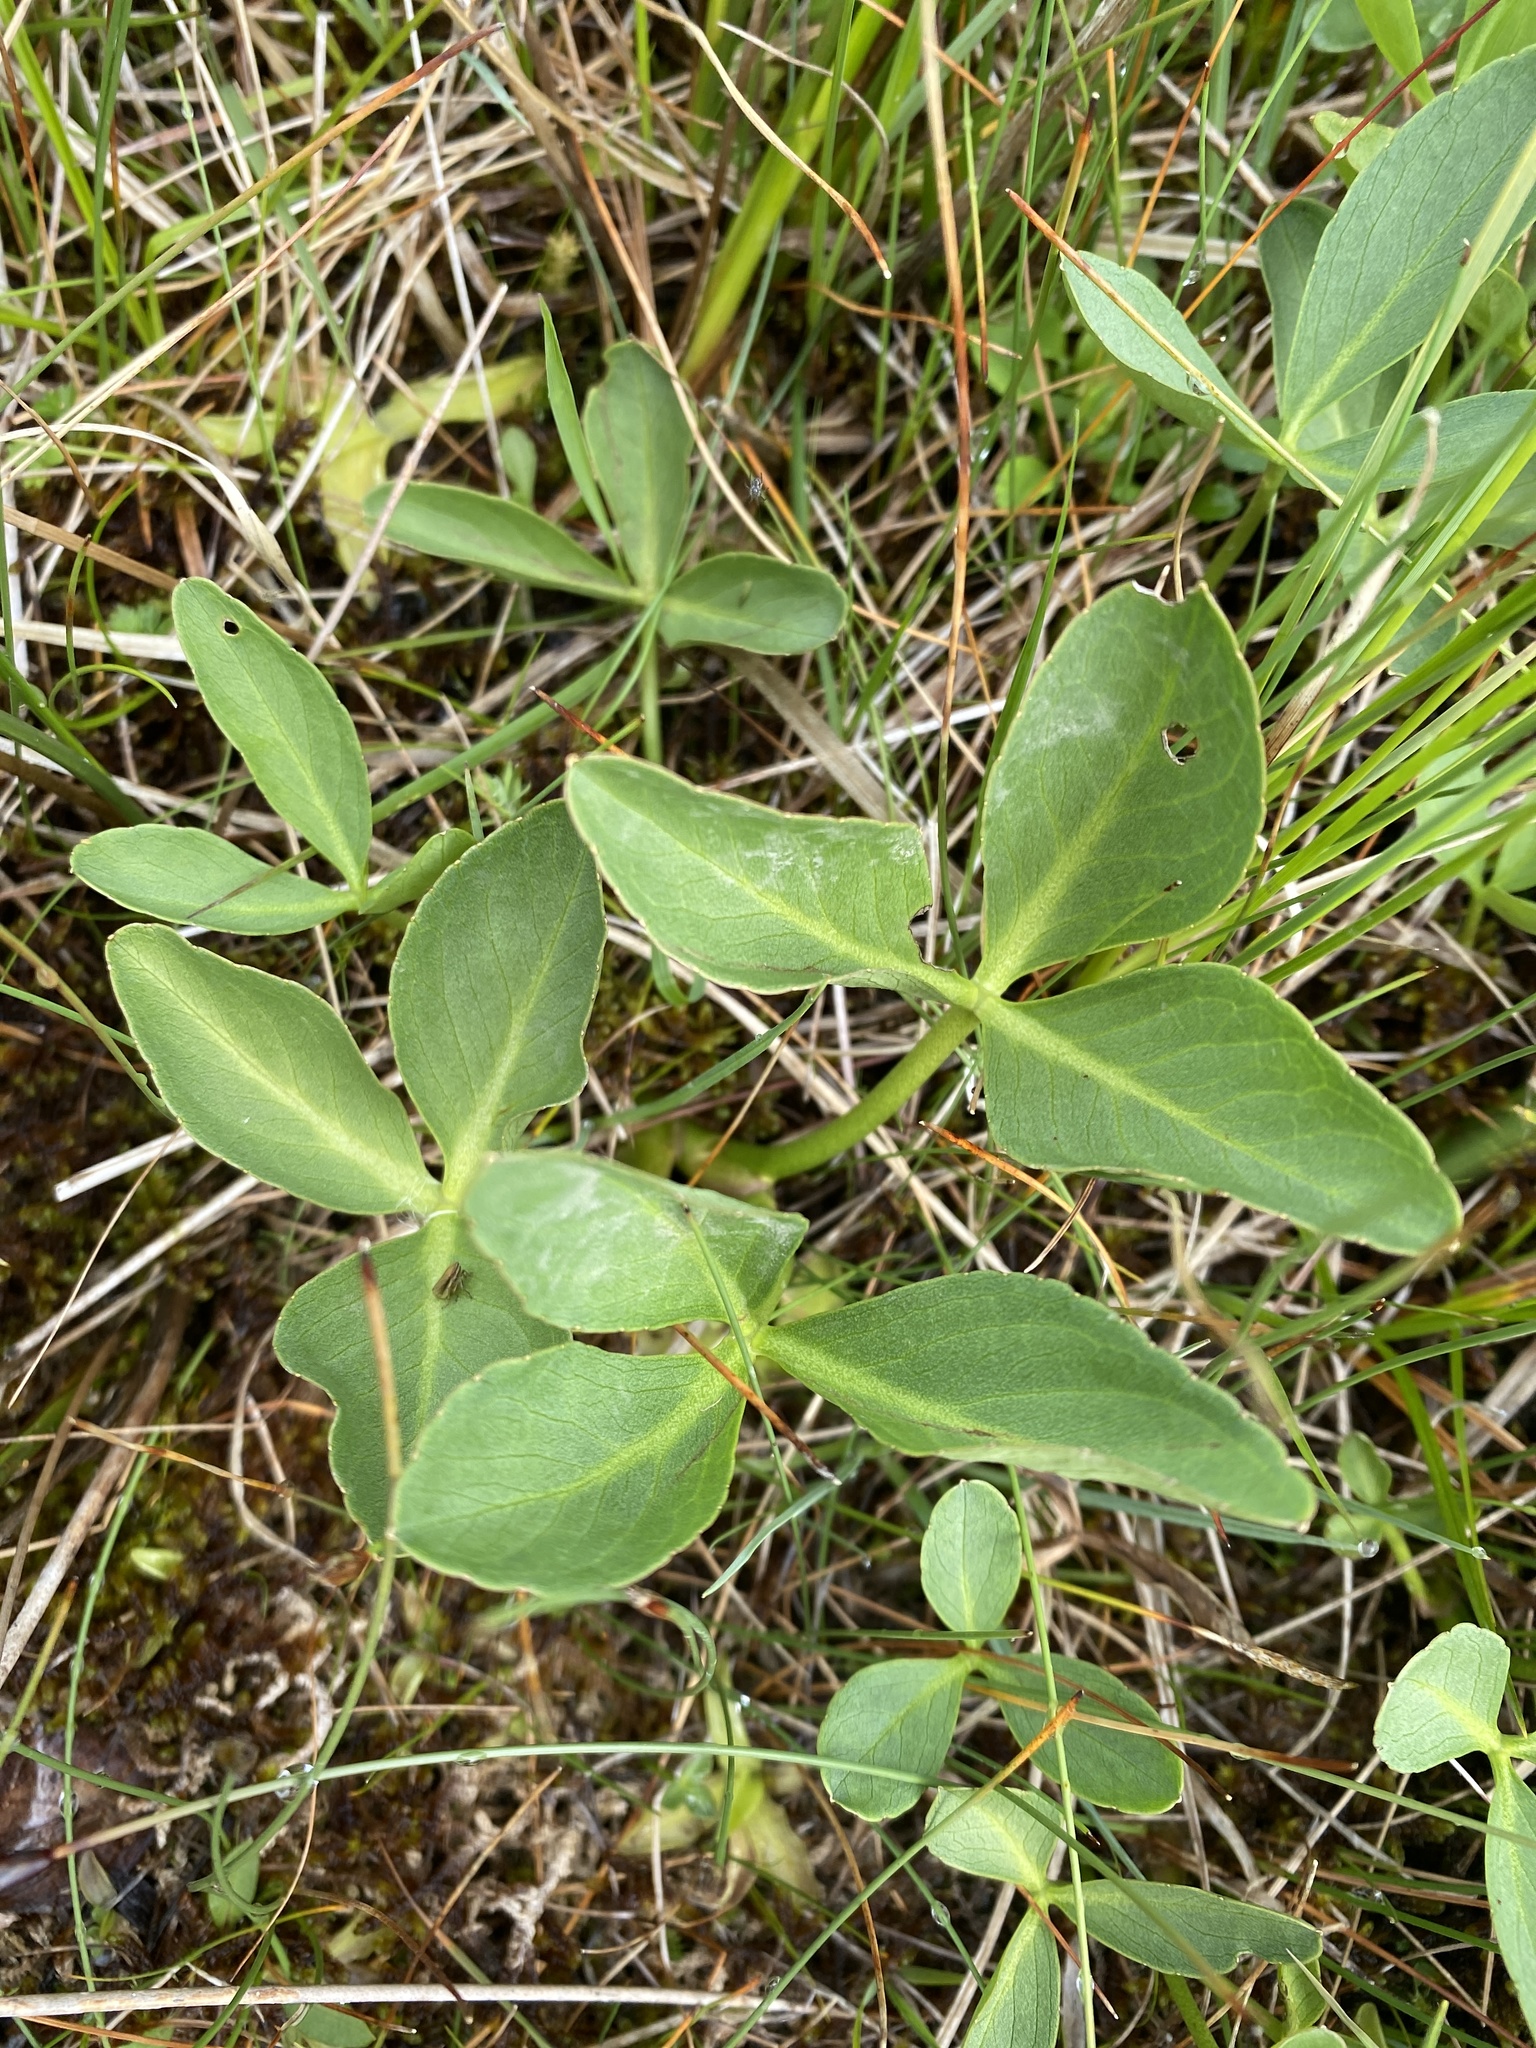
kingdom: Plantae
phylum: Tracheophyta
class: Magnoliopsida
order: Asterales
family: Menyanthaceae
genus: Menyanthes
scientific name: Menyanthes trifoliata
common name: Bogbean
